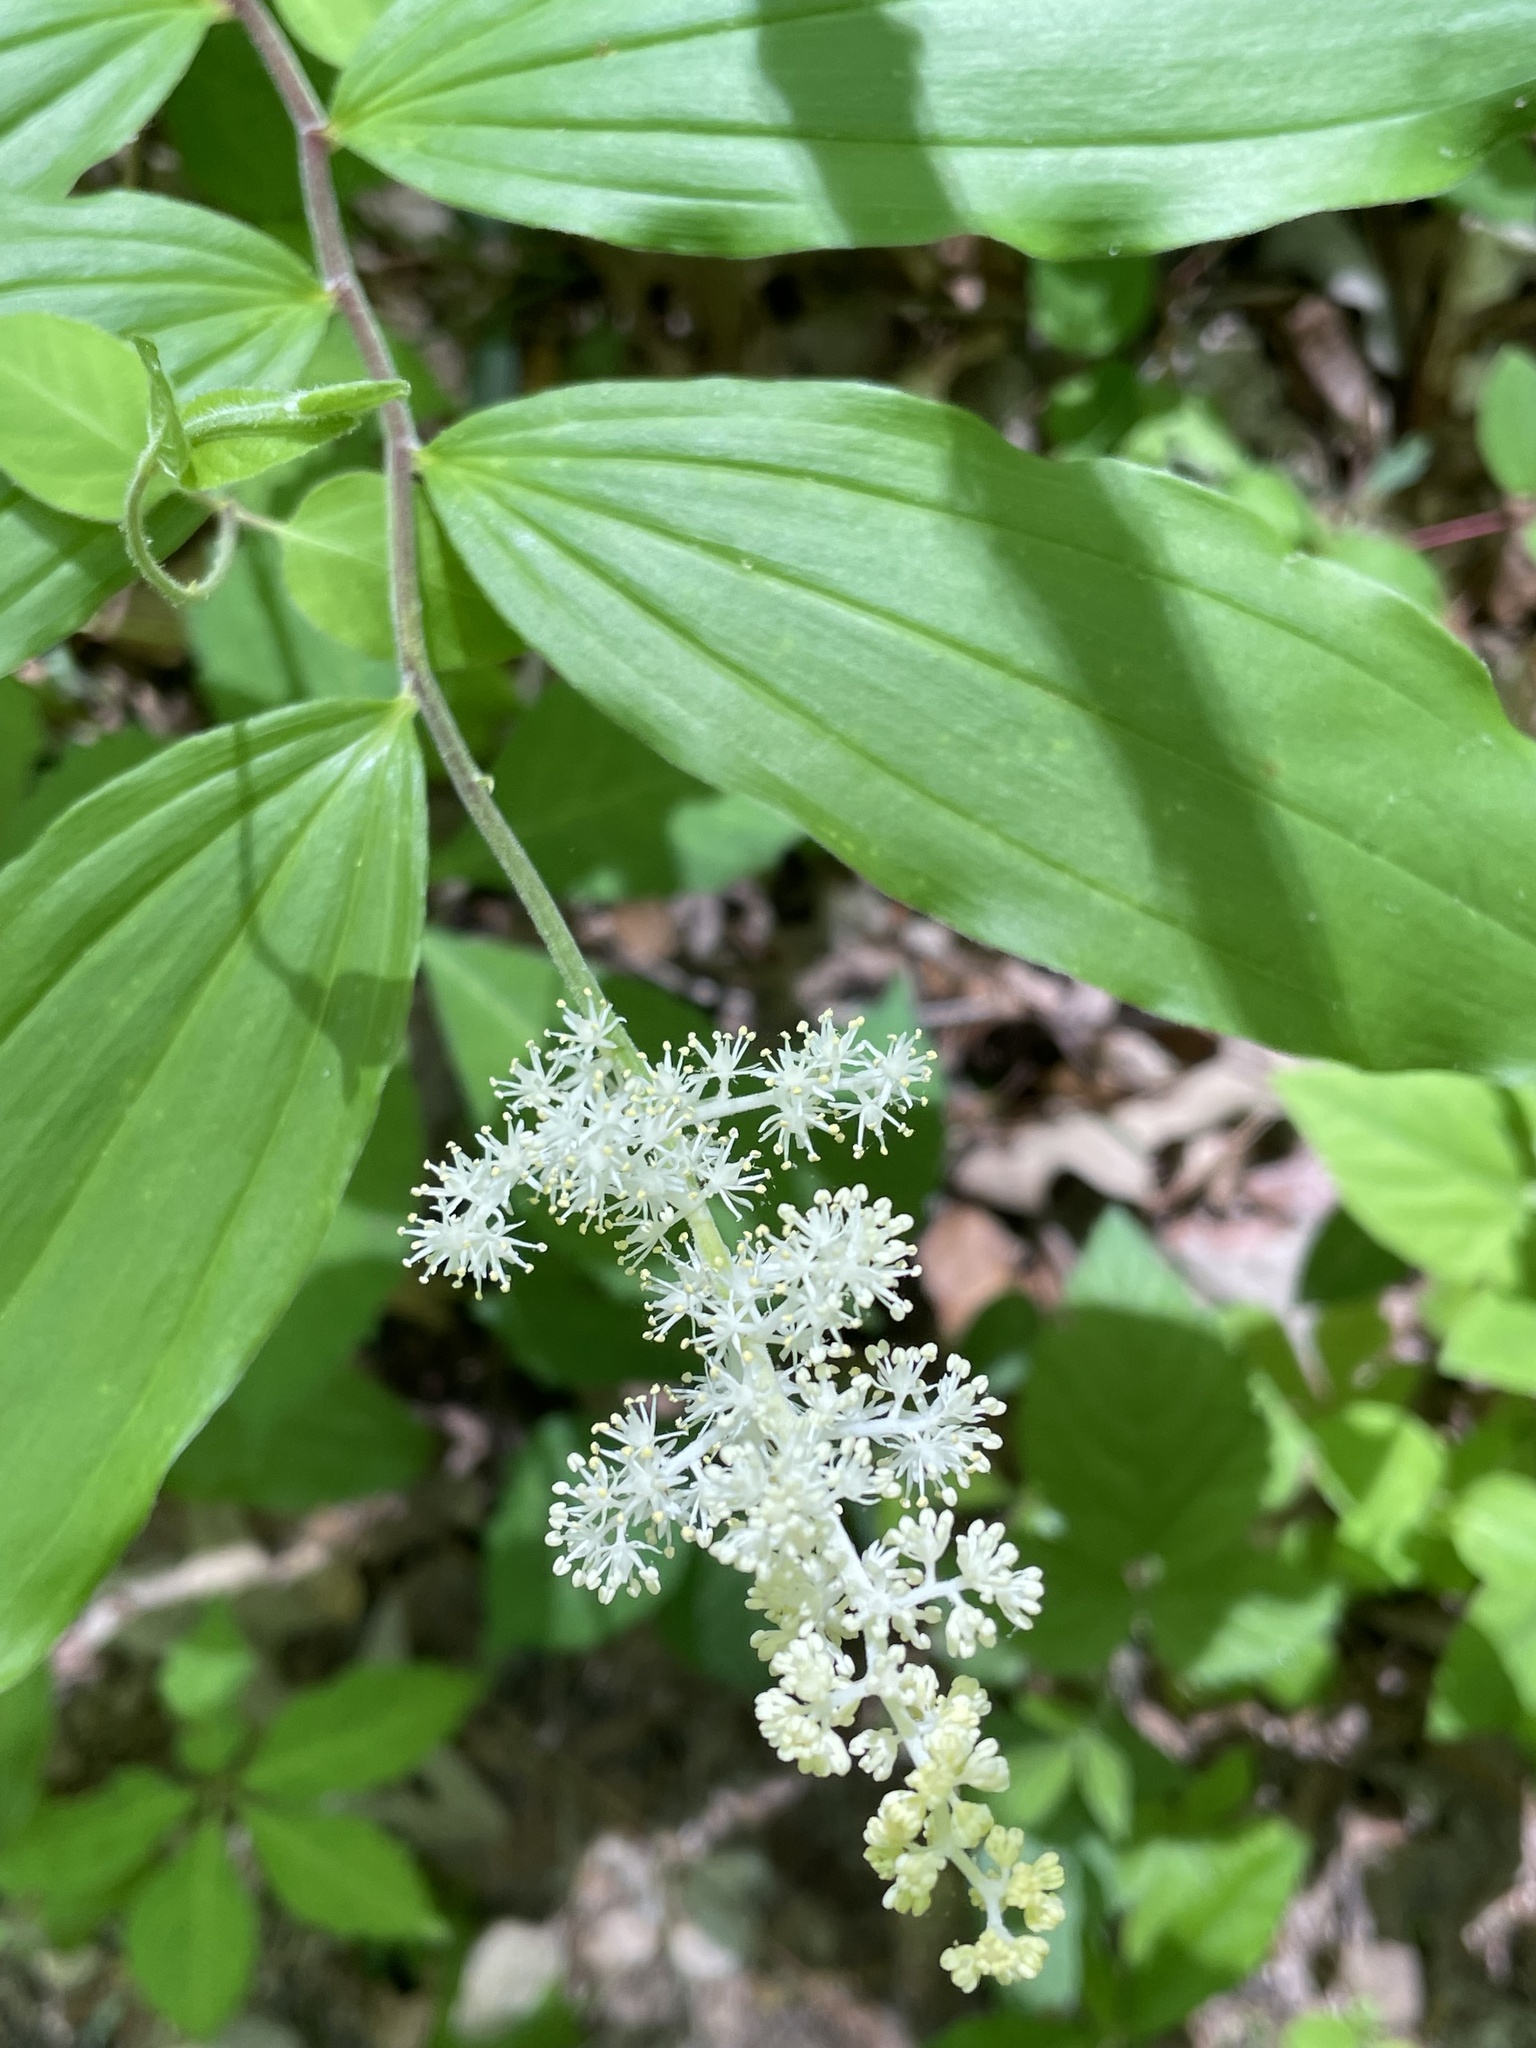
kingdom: Plantae
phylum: Tracheophyta
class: Liliopsida
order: Asparagales
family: Asparagaceae
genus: Maianthemum
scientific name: Maianthemum racemosum
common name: False spikenard
